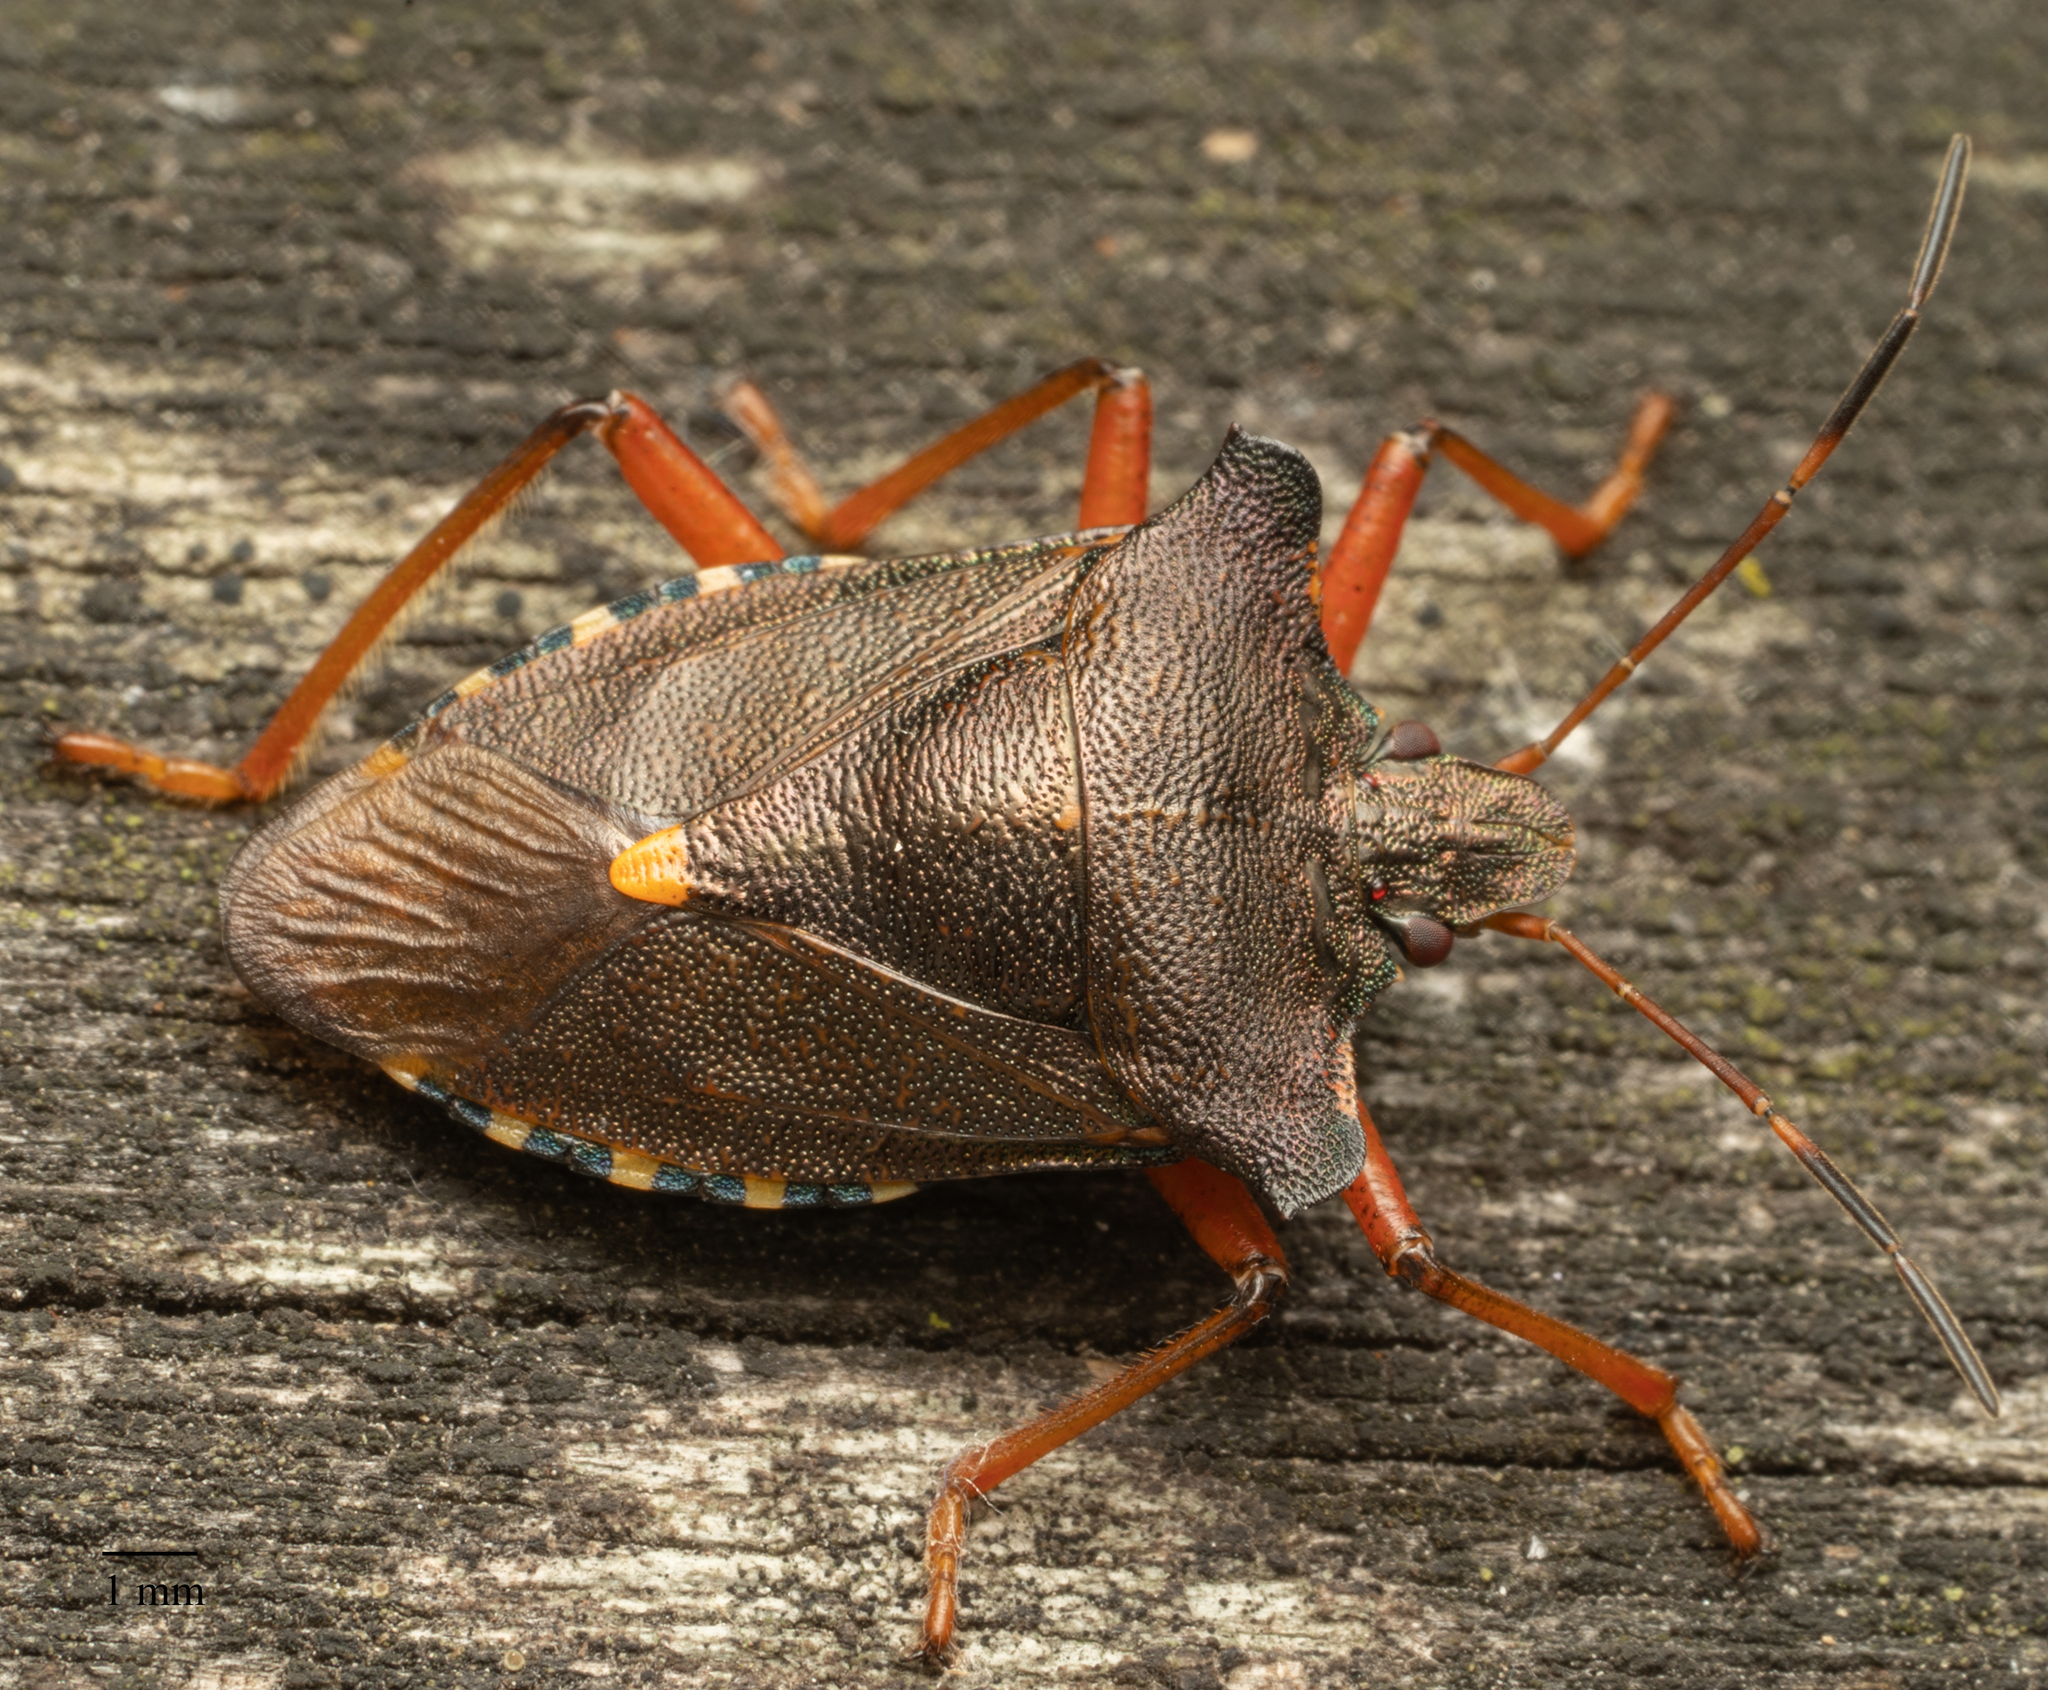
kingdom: Animalia
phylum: Arthropoda
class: Insecta
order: Hemiptera
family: Pentatomidae
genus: Pentatoma
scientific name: Pentatoma rufipes
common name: Forest bug
